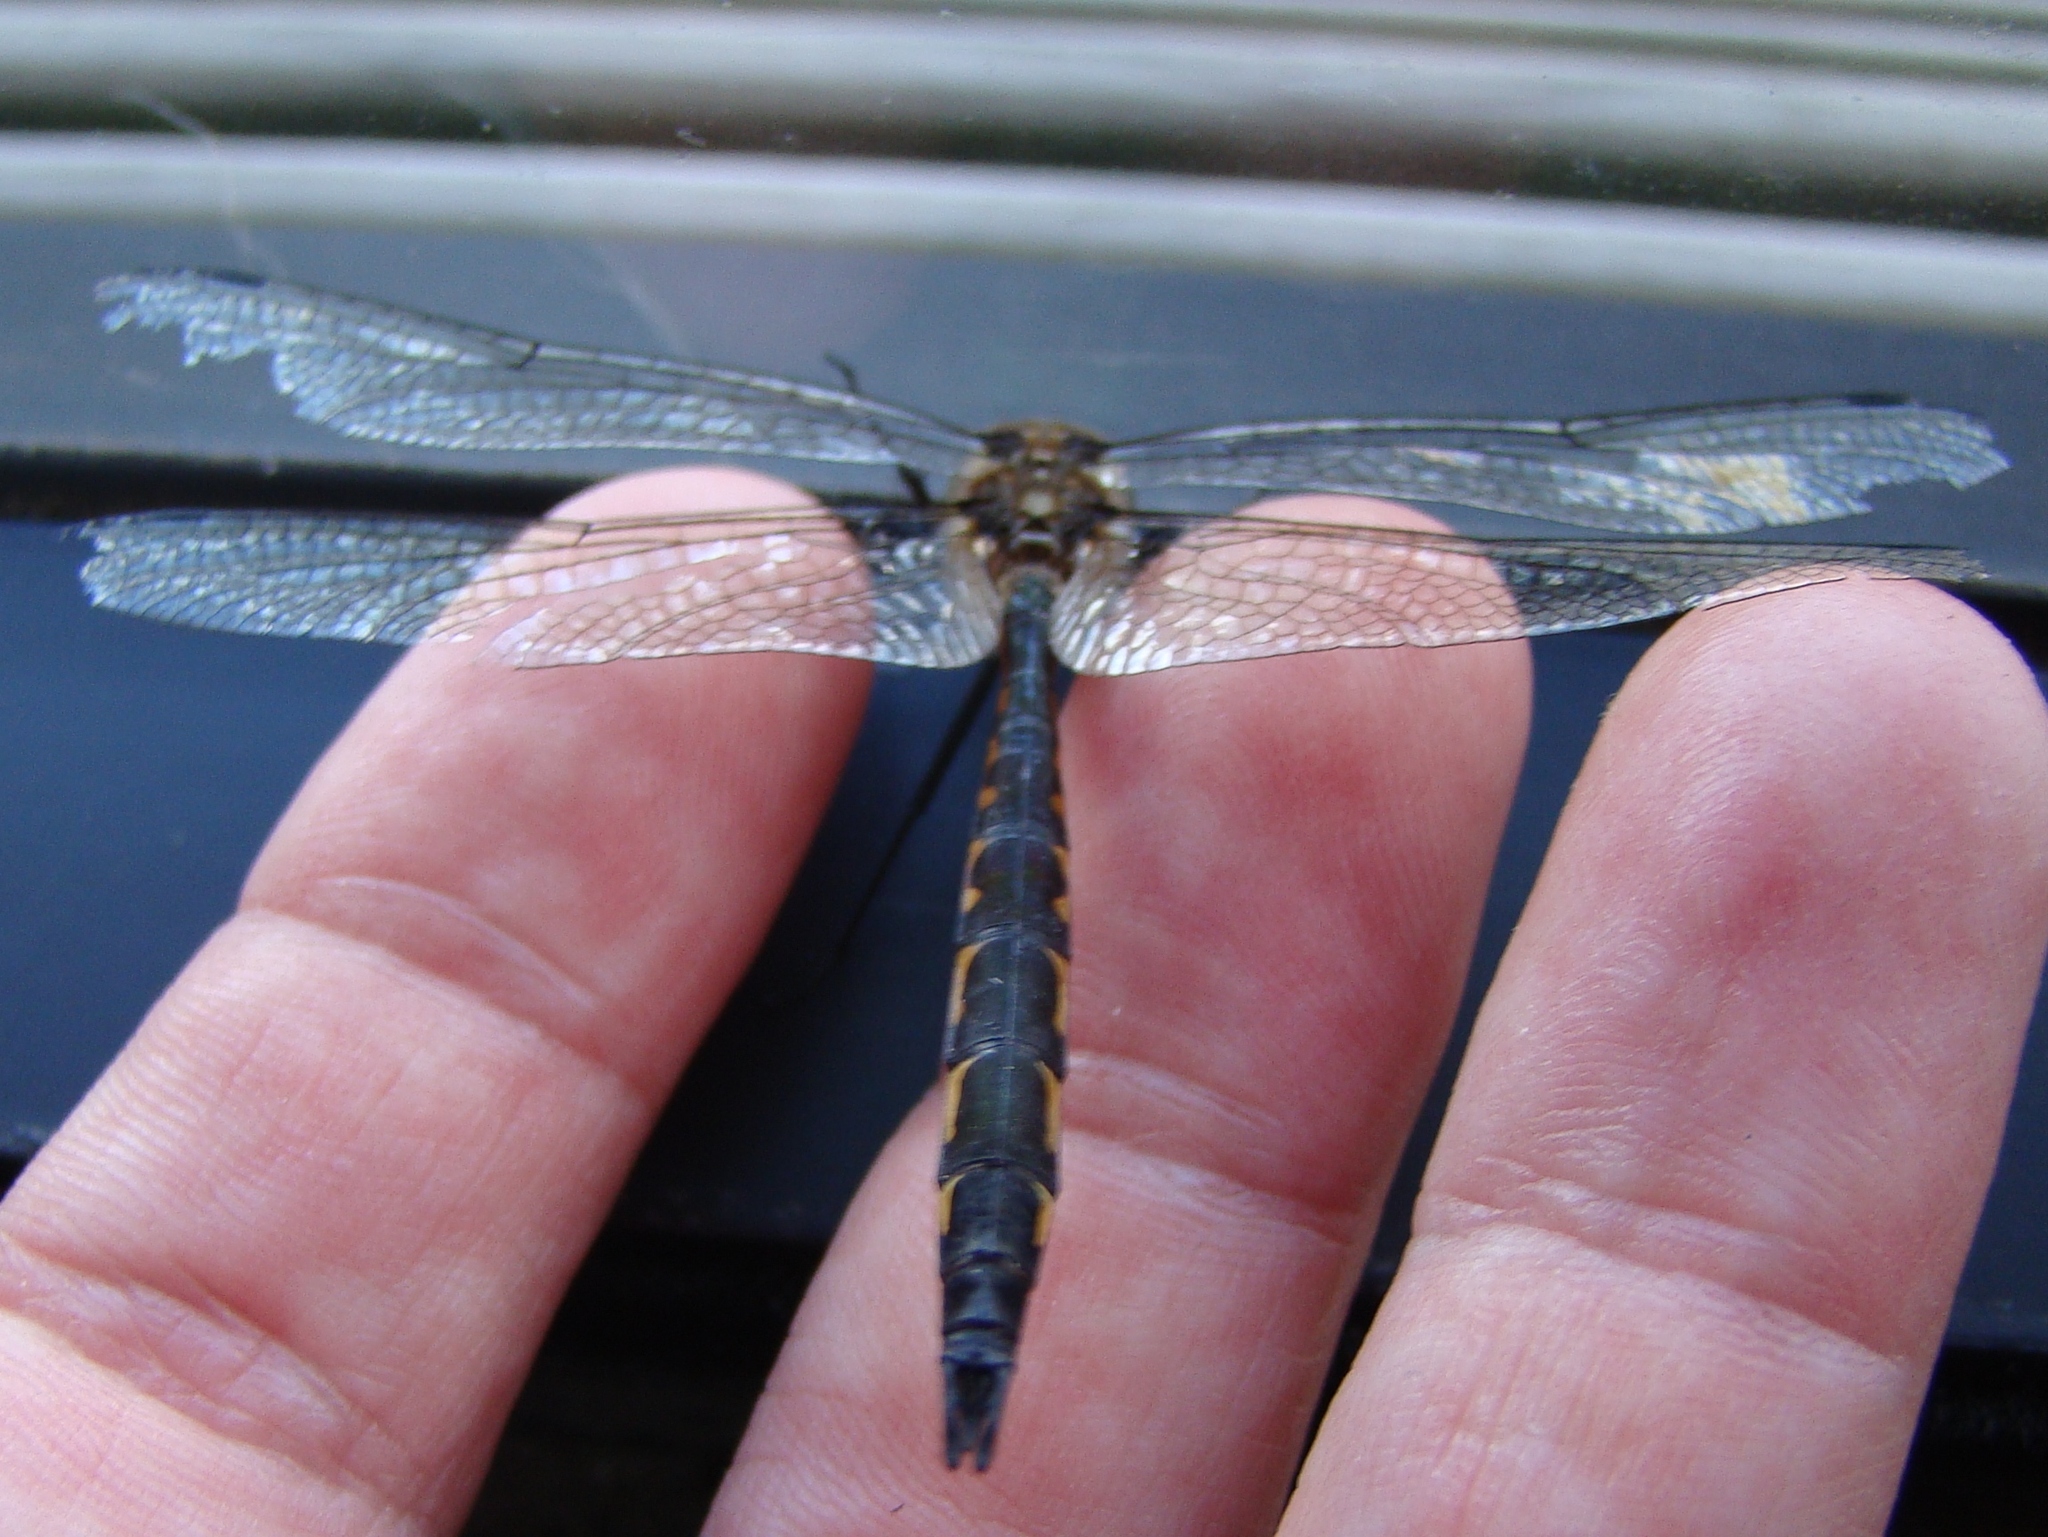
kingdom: Animalia
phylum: Arthropoda
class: Insecta
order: Odonata
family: Corduliidae
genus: Hemicordulia
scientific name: Hemicordulia australiae
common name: Sentry dragonfly
